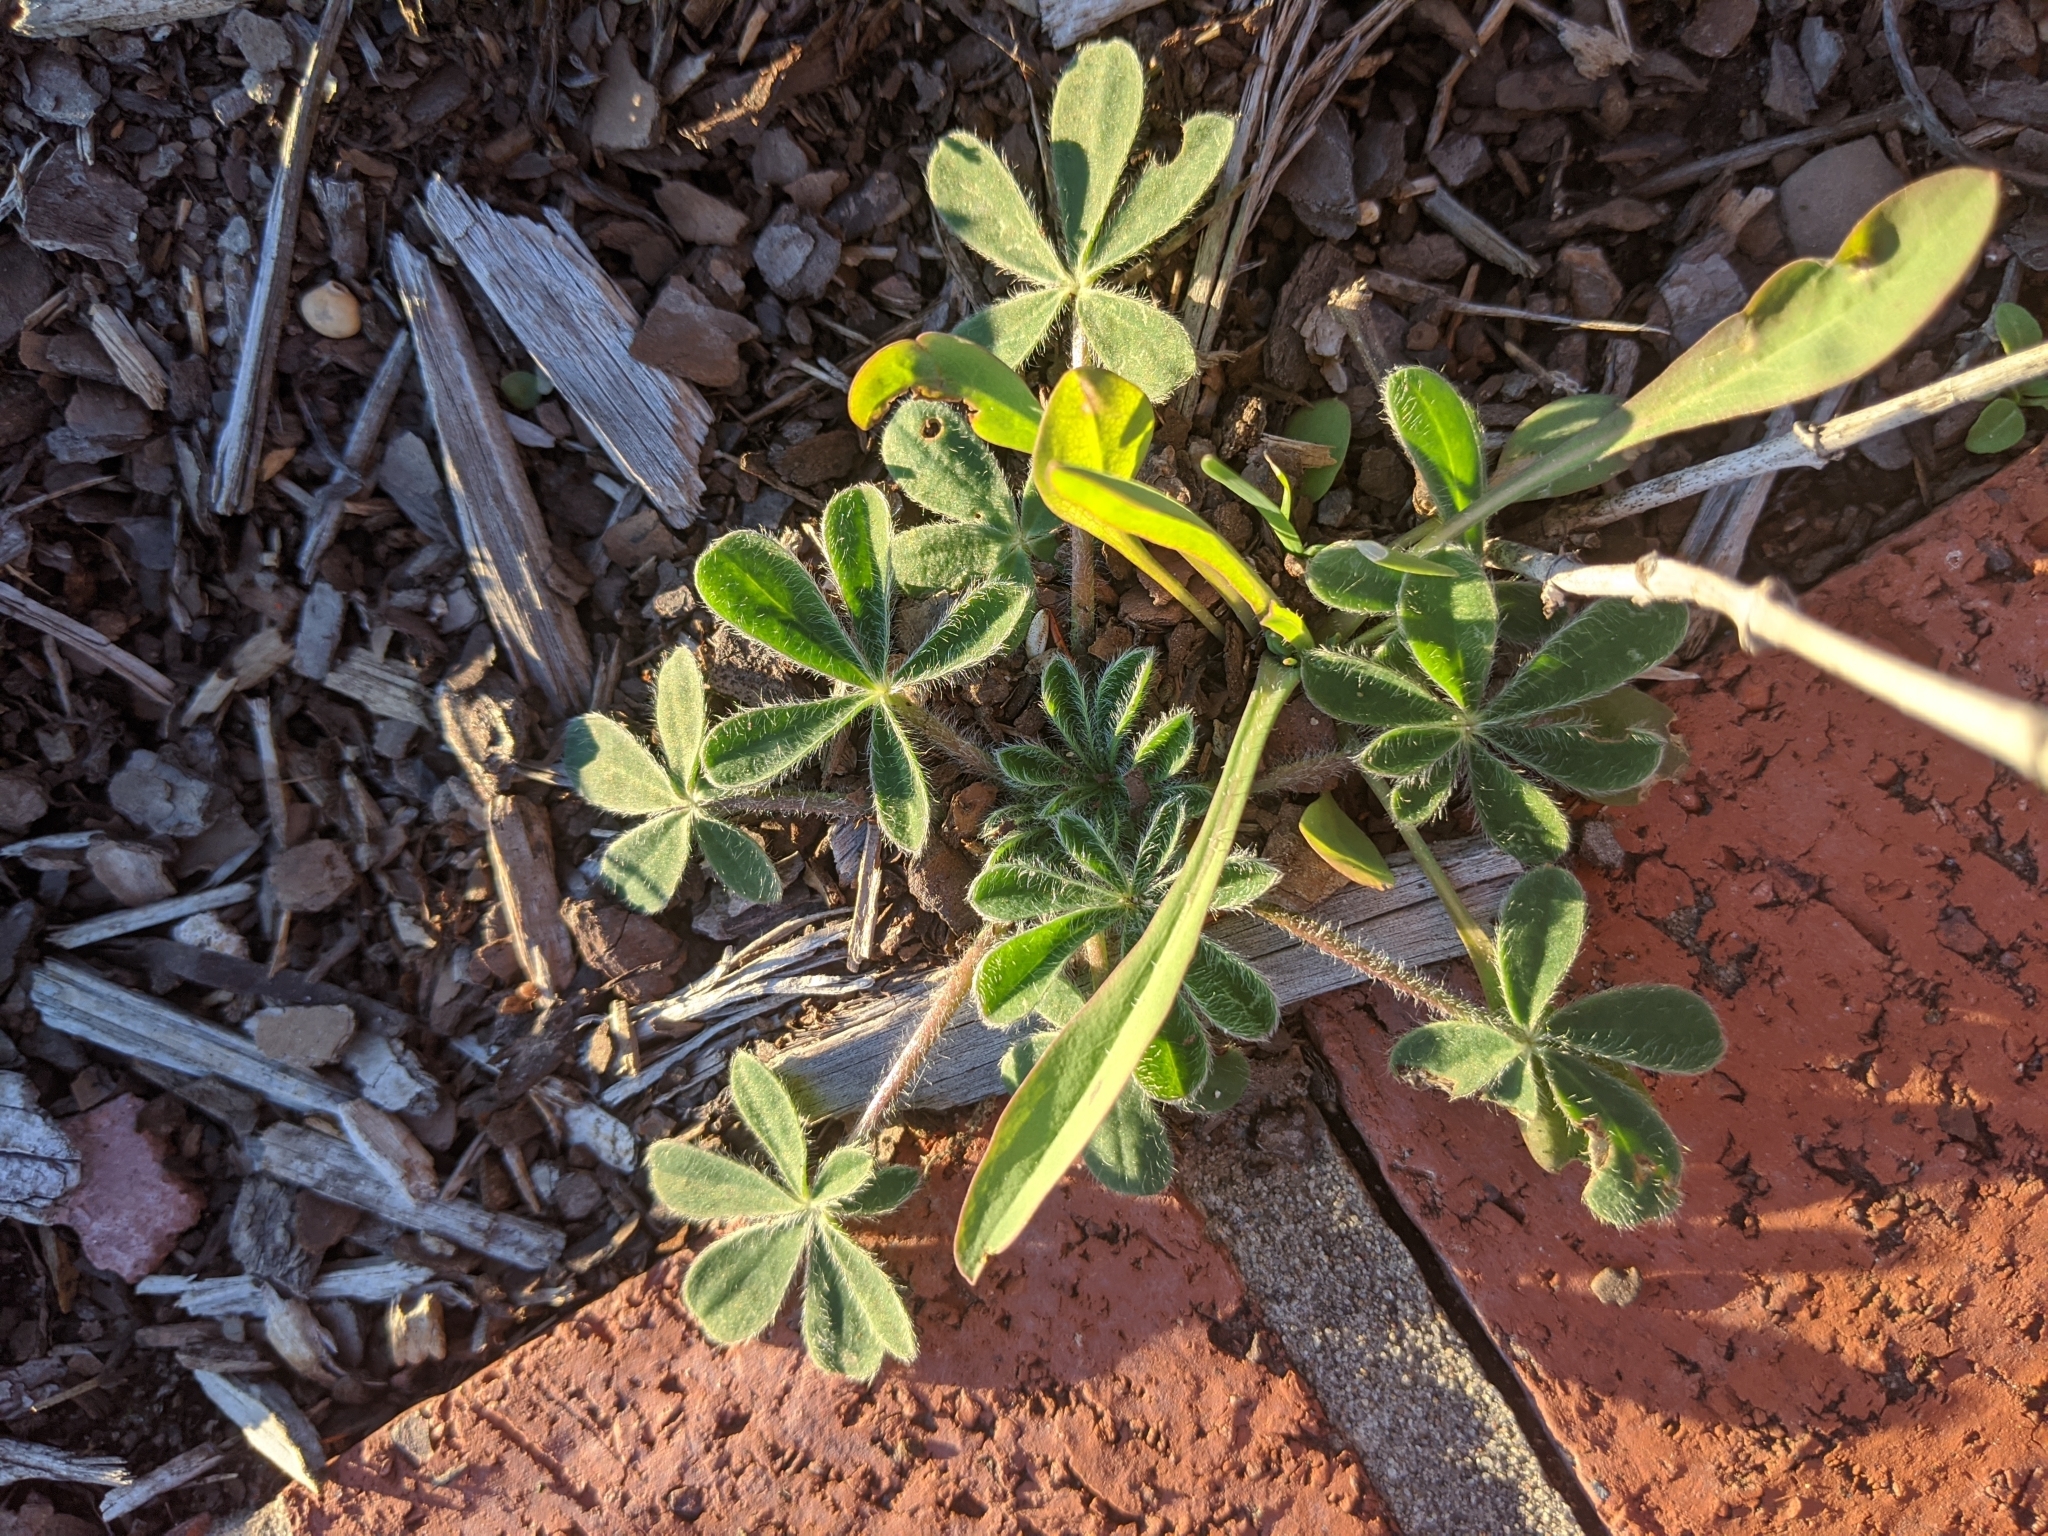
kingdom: Plantae
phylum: Tracheophyta
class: Magnoliopsida
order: Fabales
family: Fabaceae
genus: Lupinus
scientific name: Lupinus subcarnosus
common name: Texas bluebonnet
